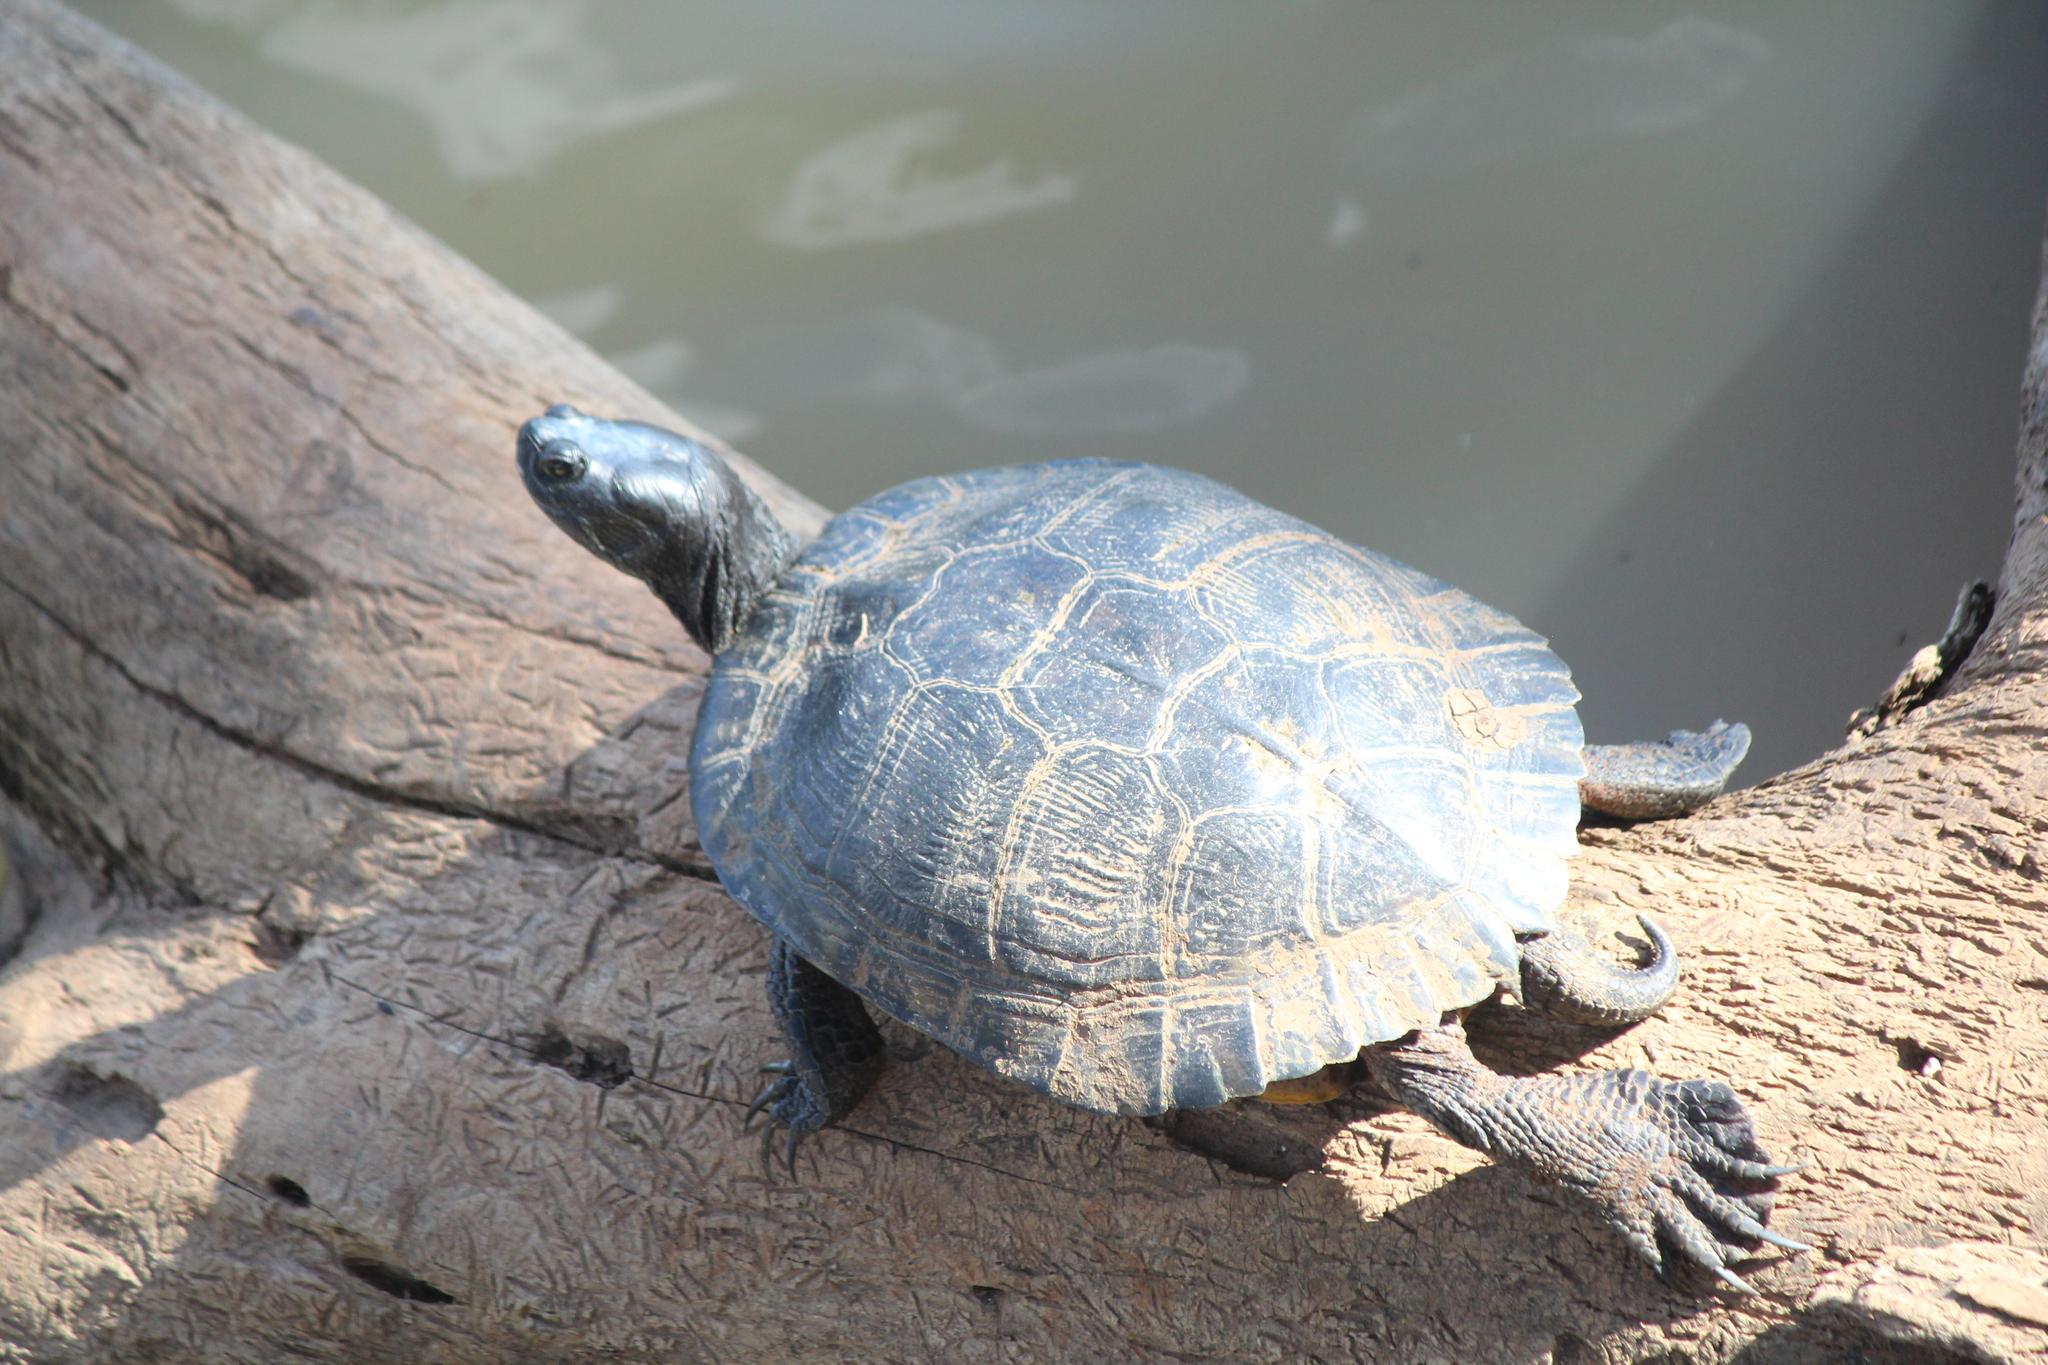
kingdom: Animalia
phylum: Chordata
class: Testudines
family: Emydidae
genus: Trachemys
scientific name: Trachemys scripta
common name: Slider
